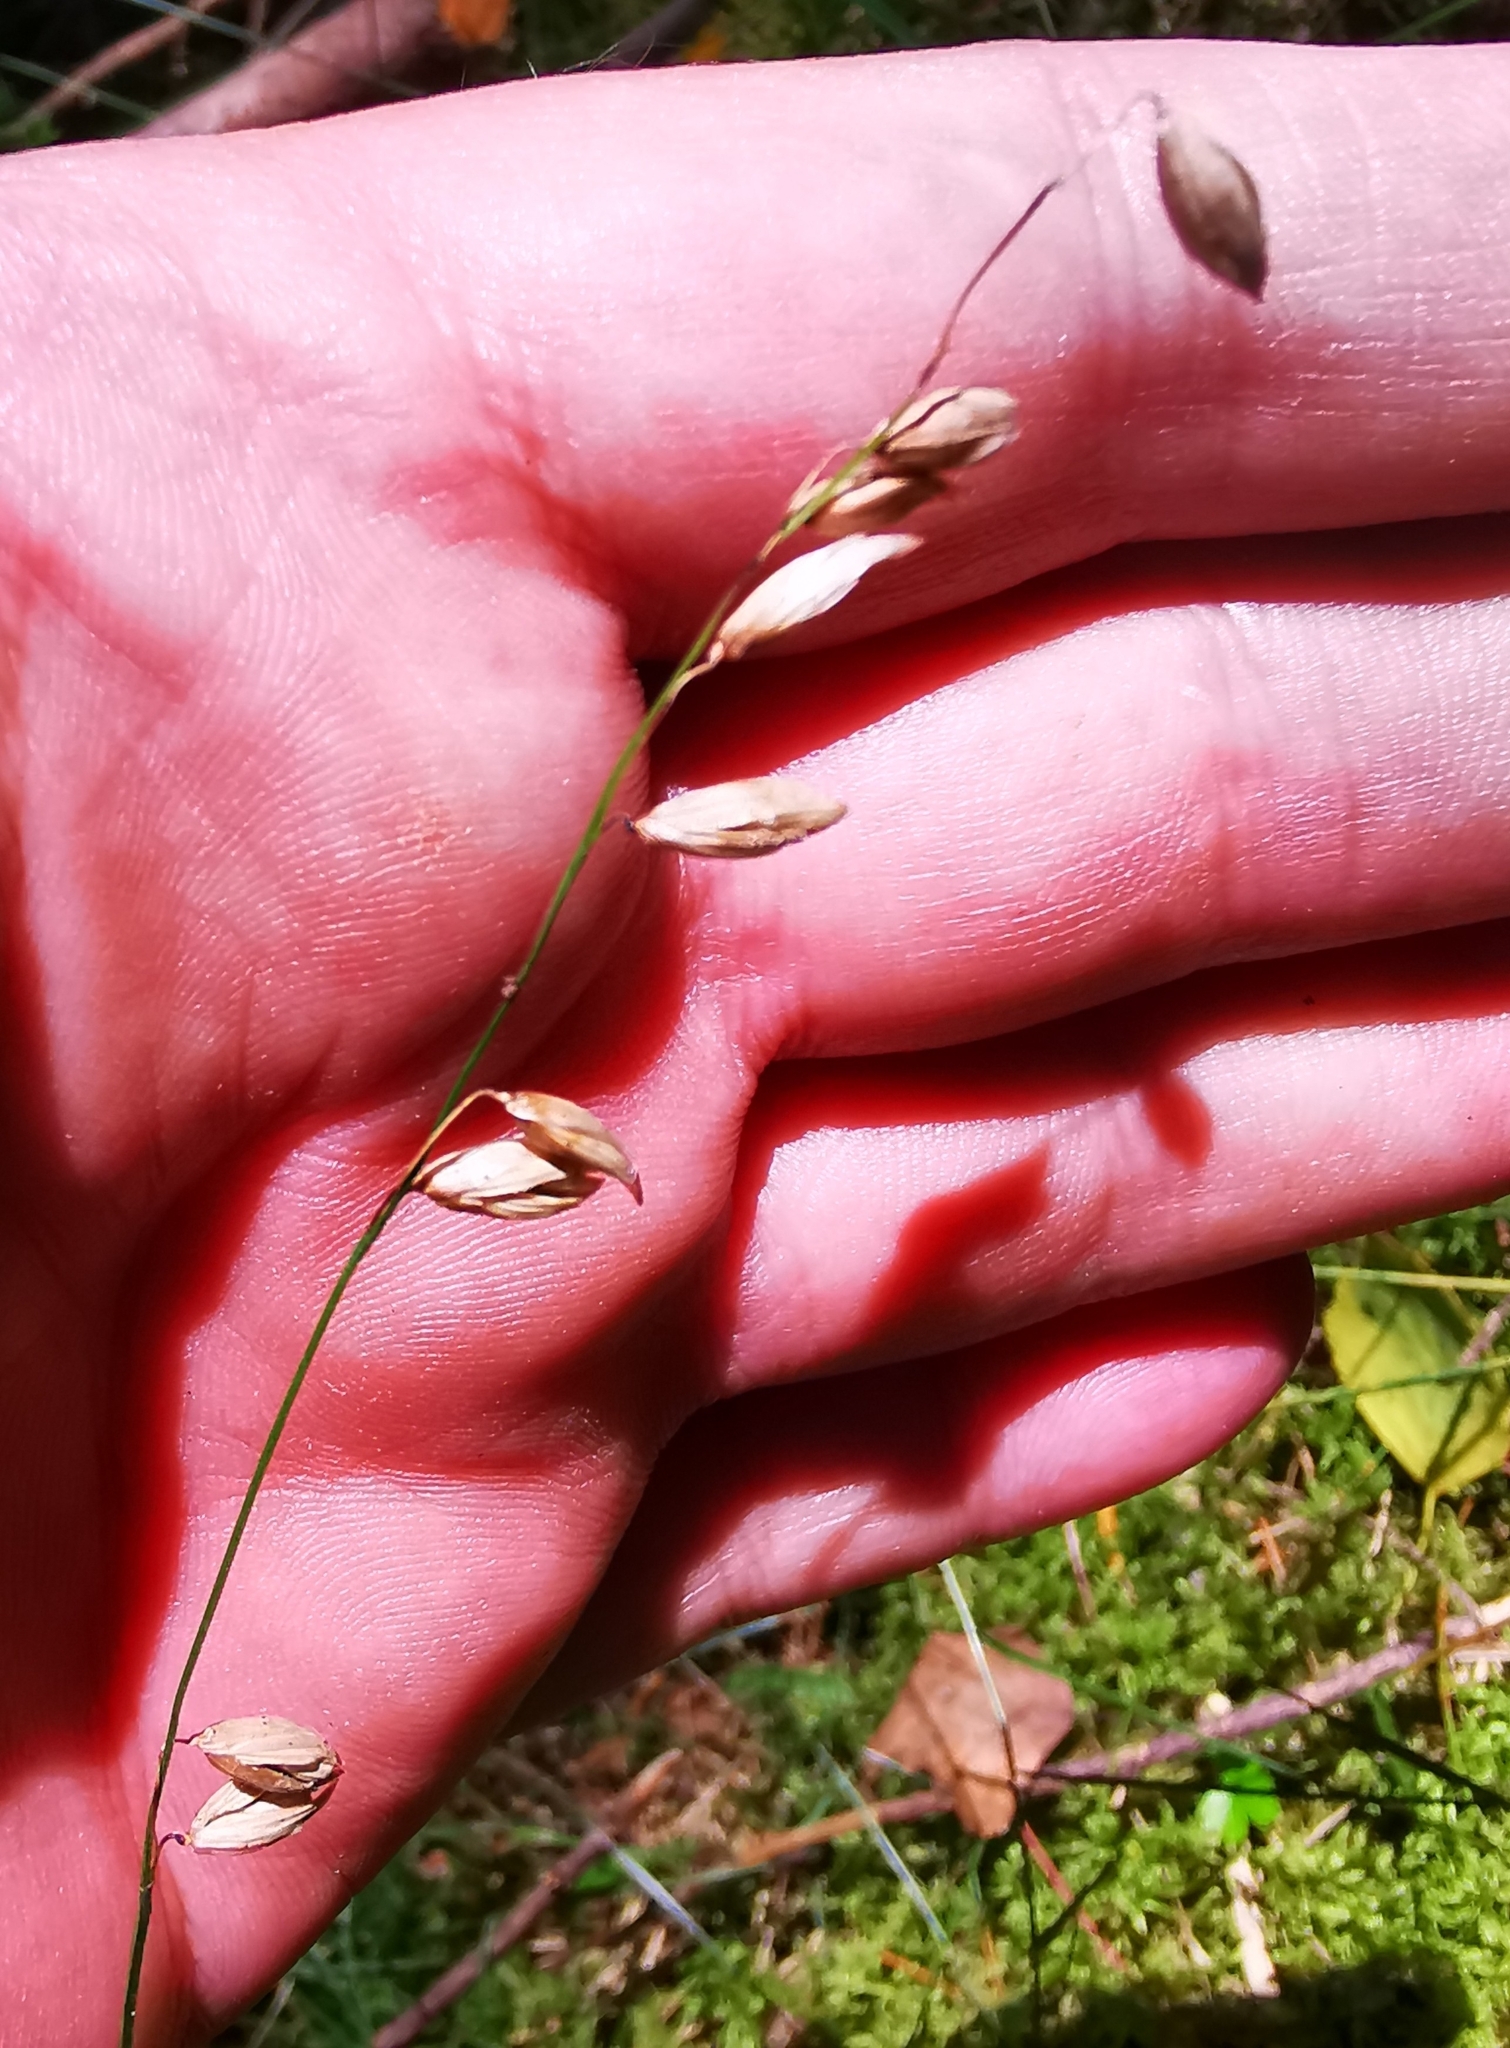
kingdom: Plantae
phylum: Tracheophyta
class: Liliopsida
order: Poales
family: Poaceae
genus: Melica
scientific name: Melica nutans
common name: Mountain melick
